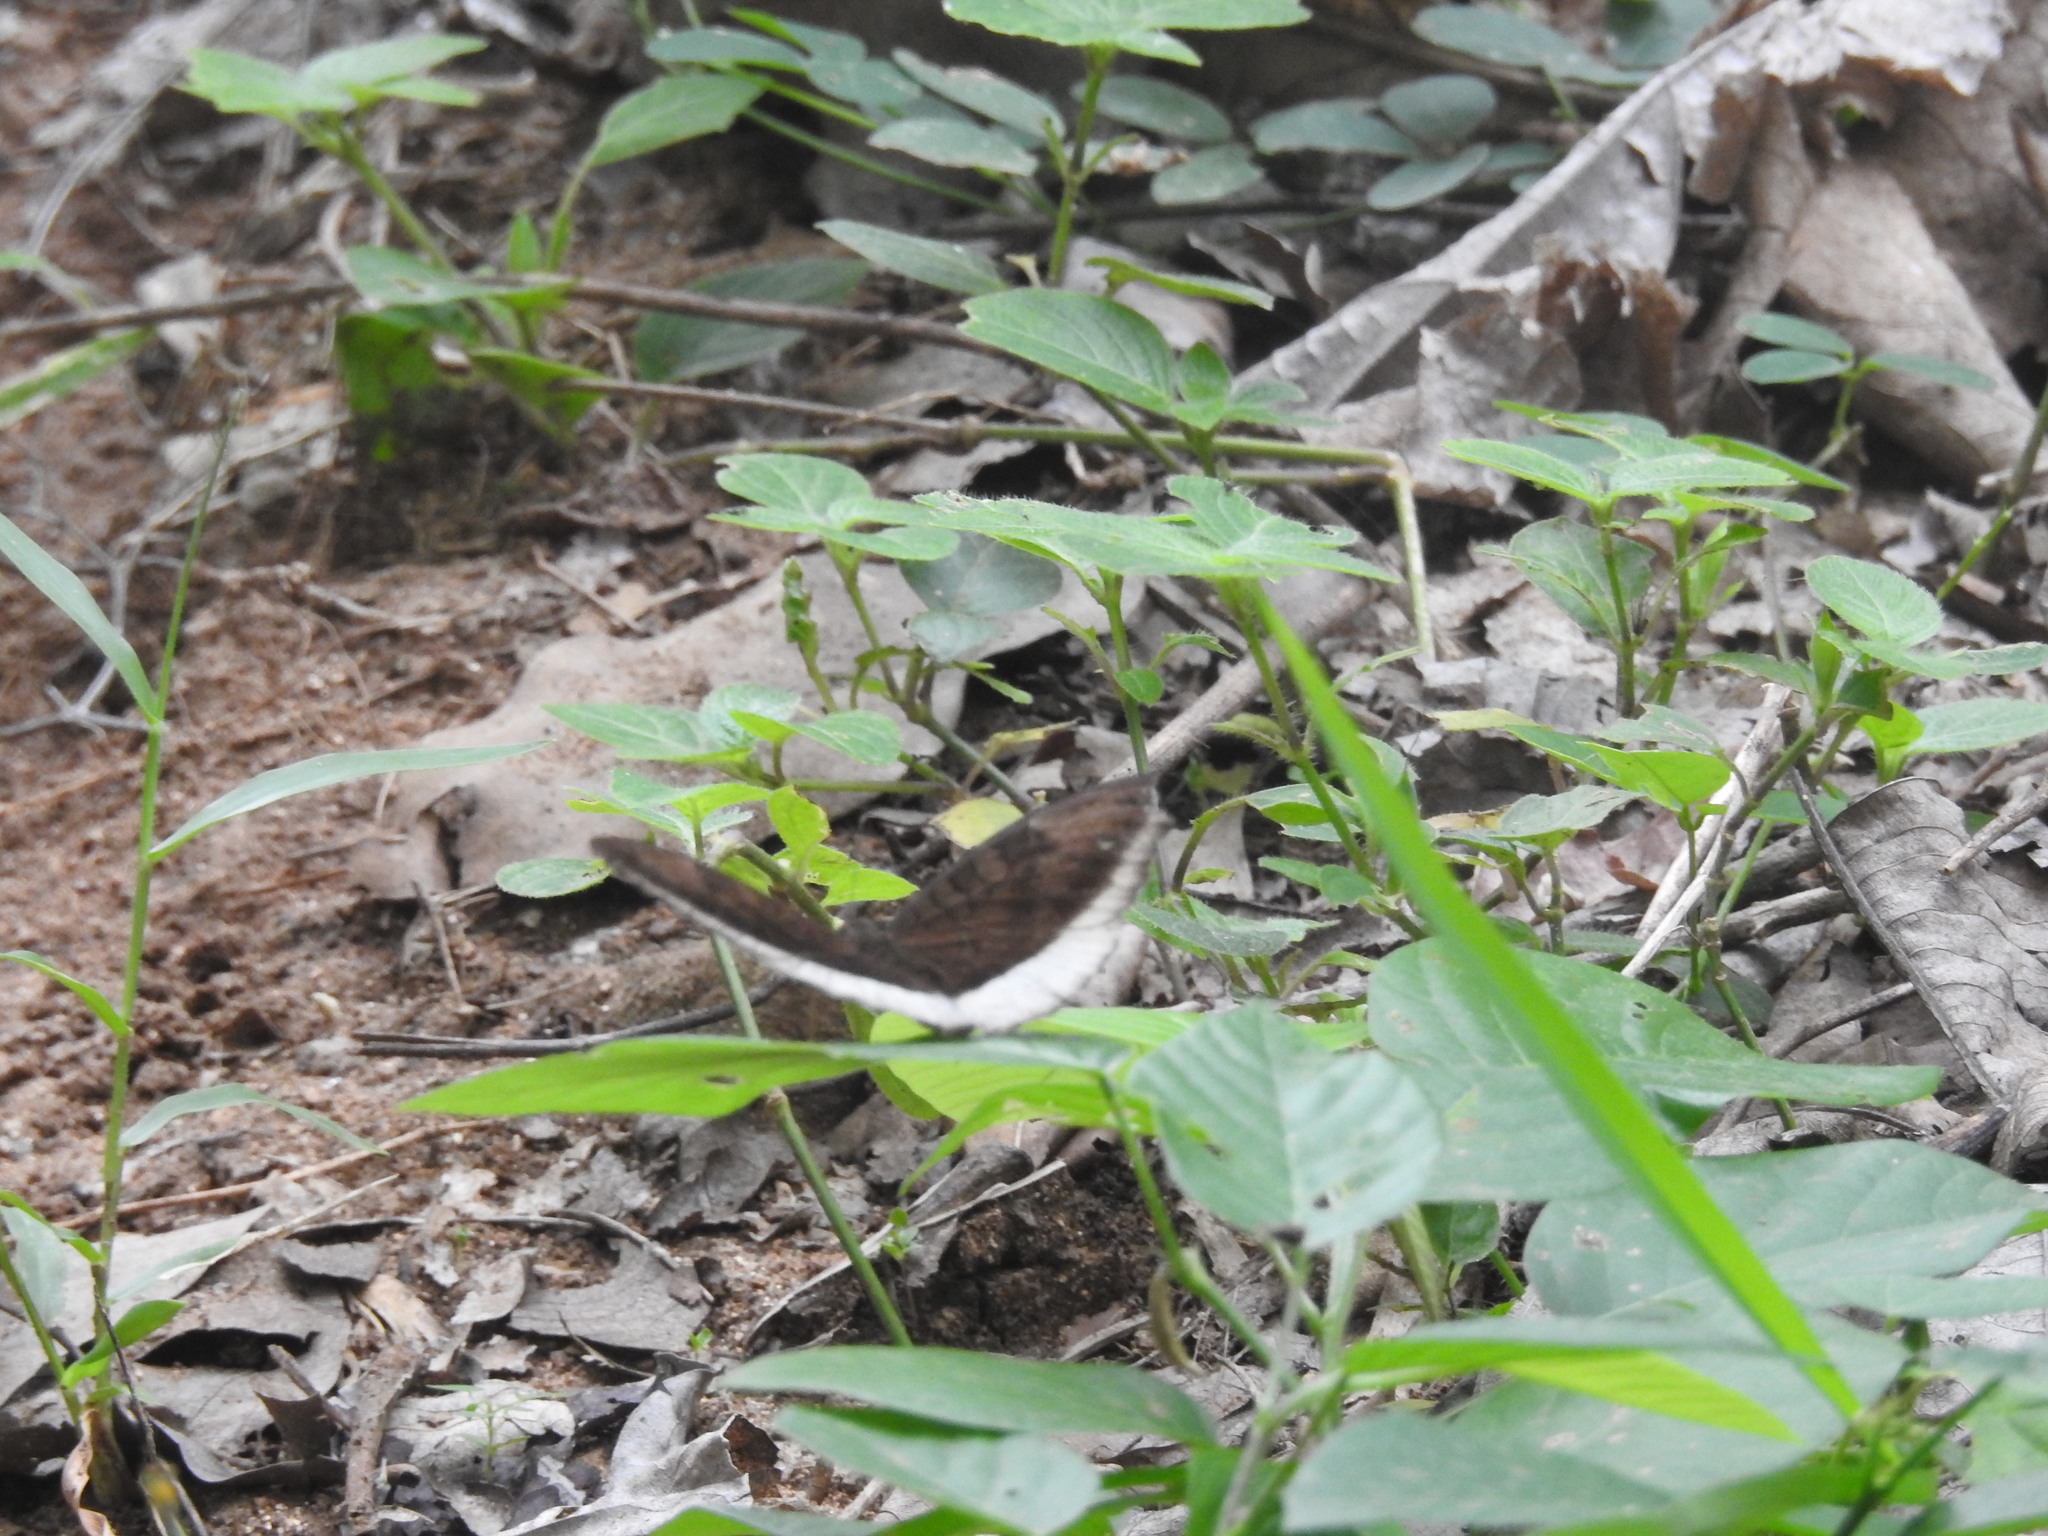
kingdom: Animalia
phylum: Arthropoda
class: Insecta
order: Lepidoptera
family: Nymphalidae
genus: Tanaecia
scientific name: Tanaecia lepidea
